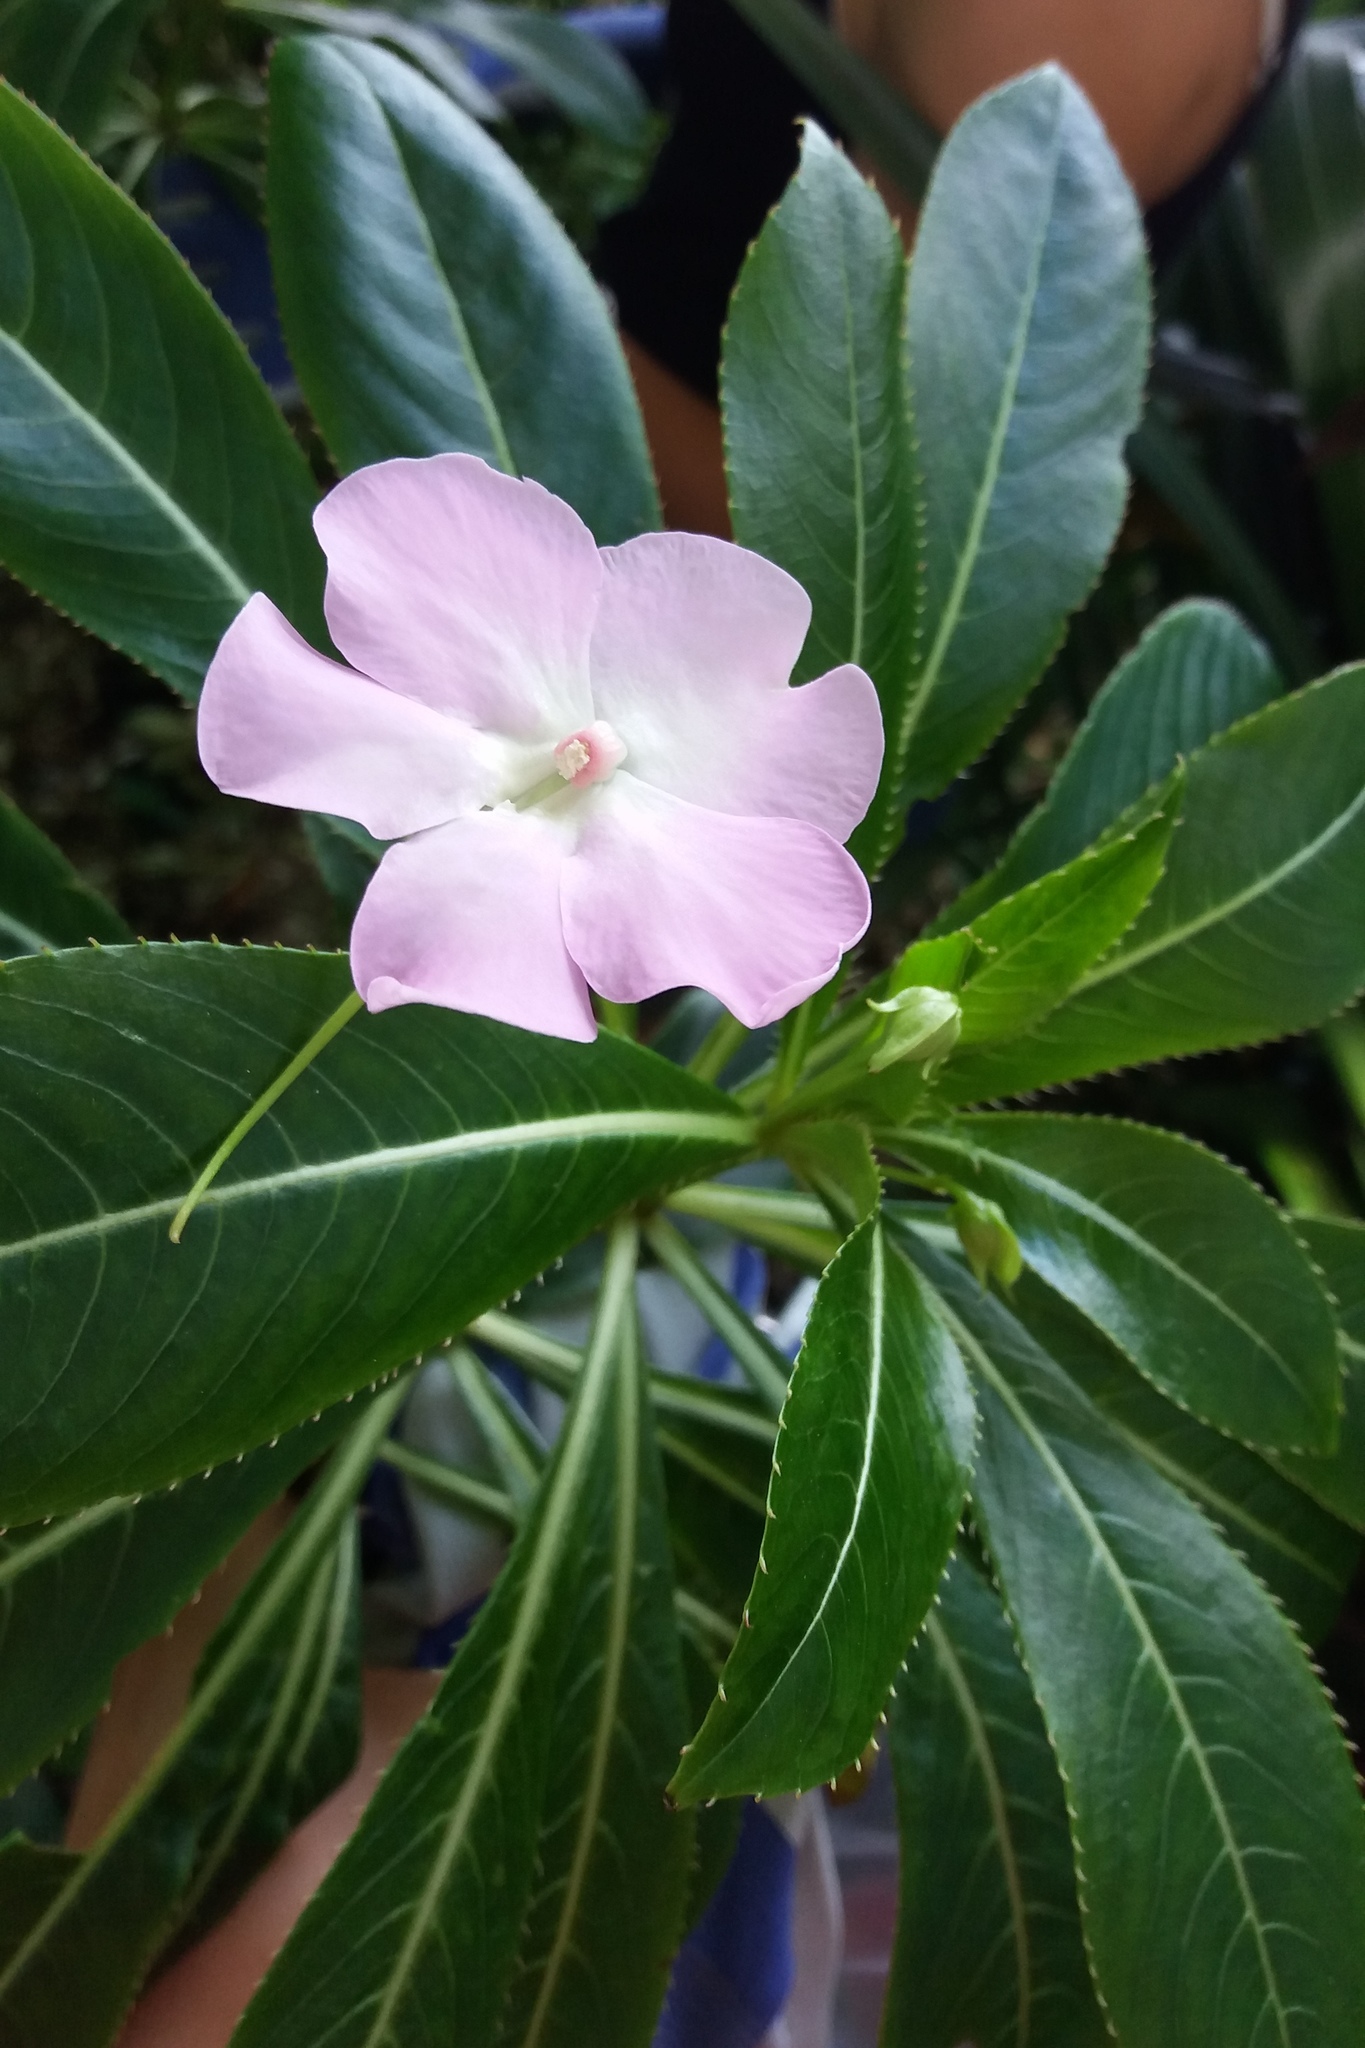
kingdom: Plantae
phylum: Tracheophyta
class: Magnoliopsida
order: Ericales
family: Balsaminaceae
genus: Impatiens
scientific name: Impatiens sodenii
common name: Oliver's touch-me-not
